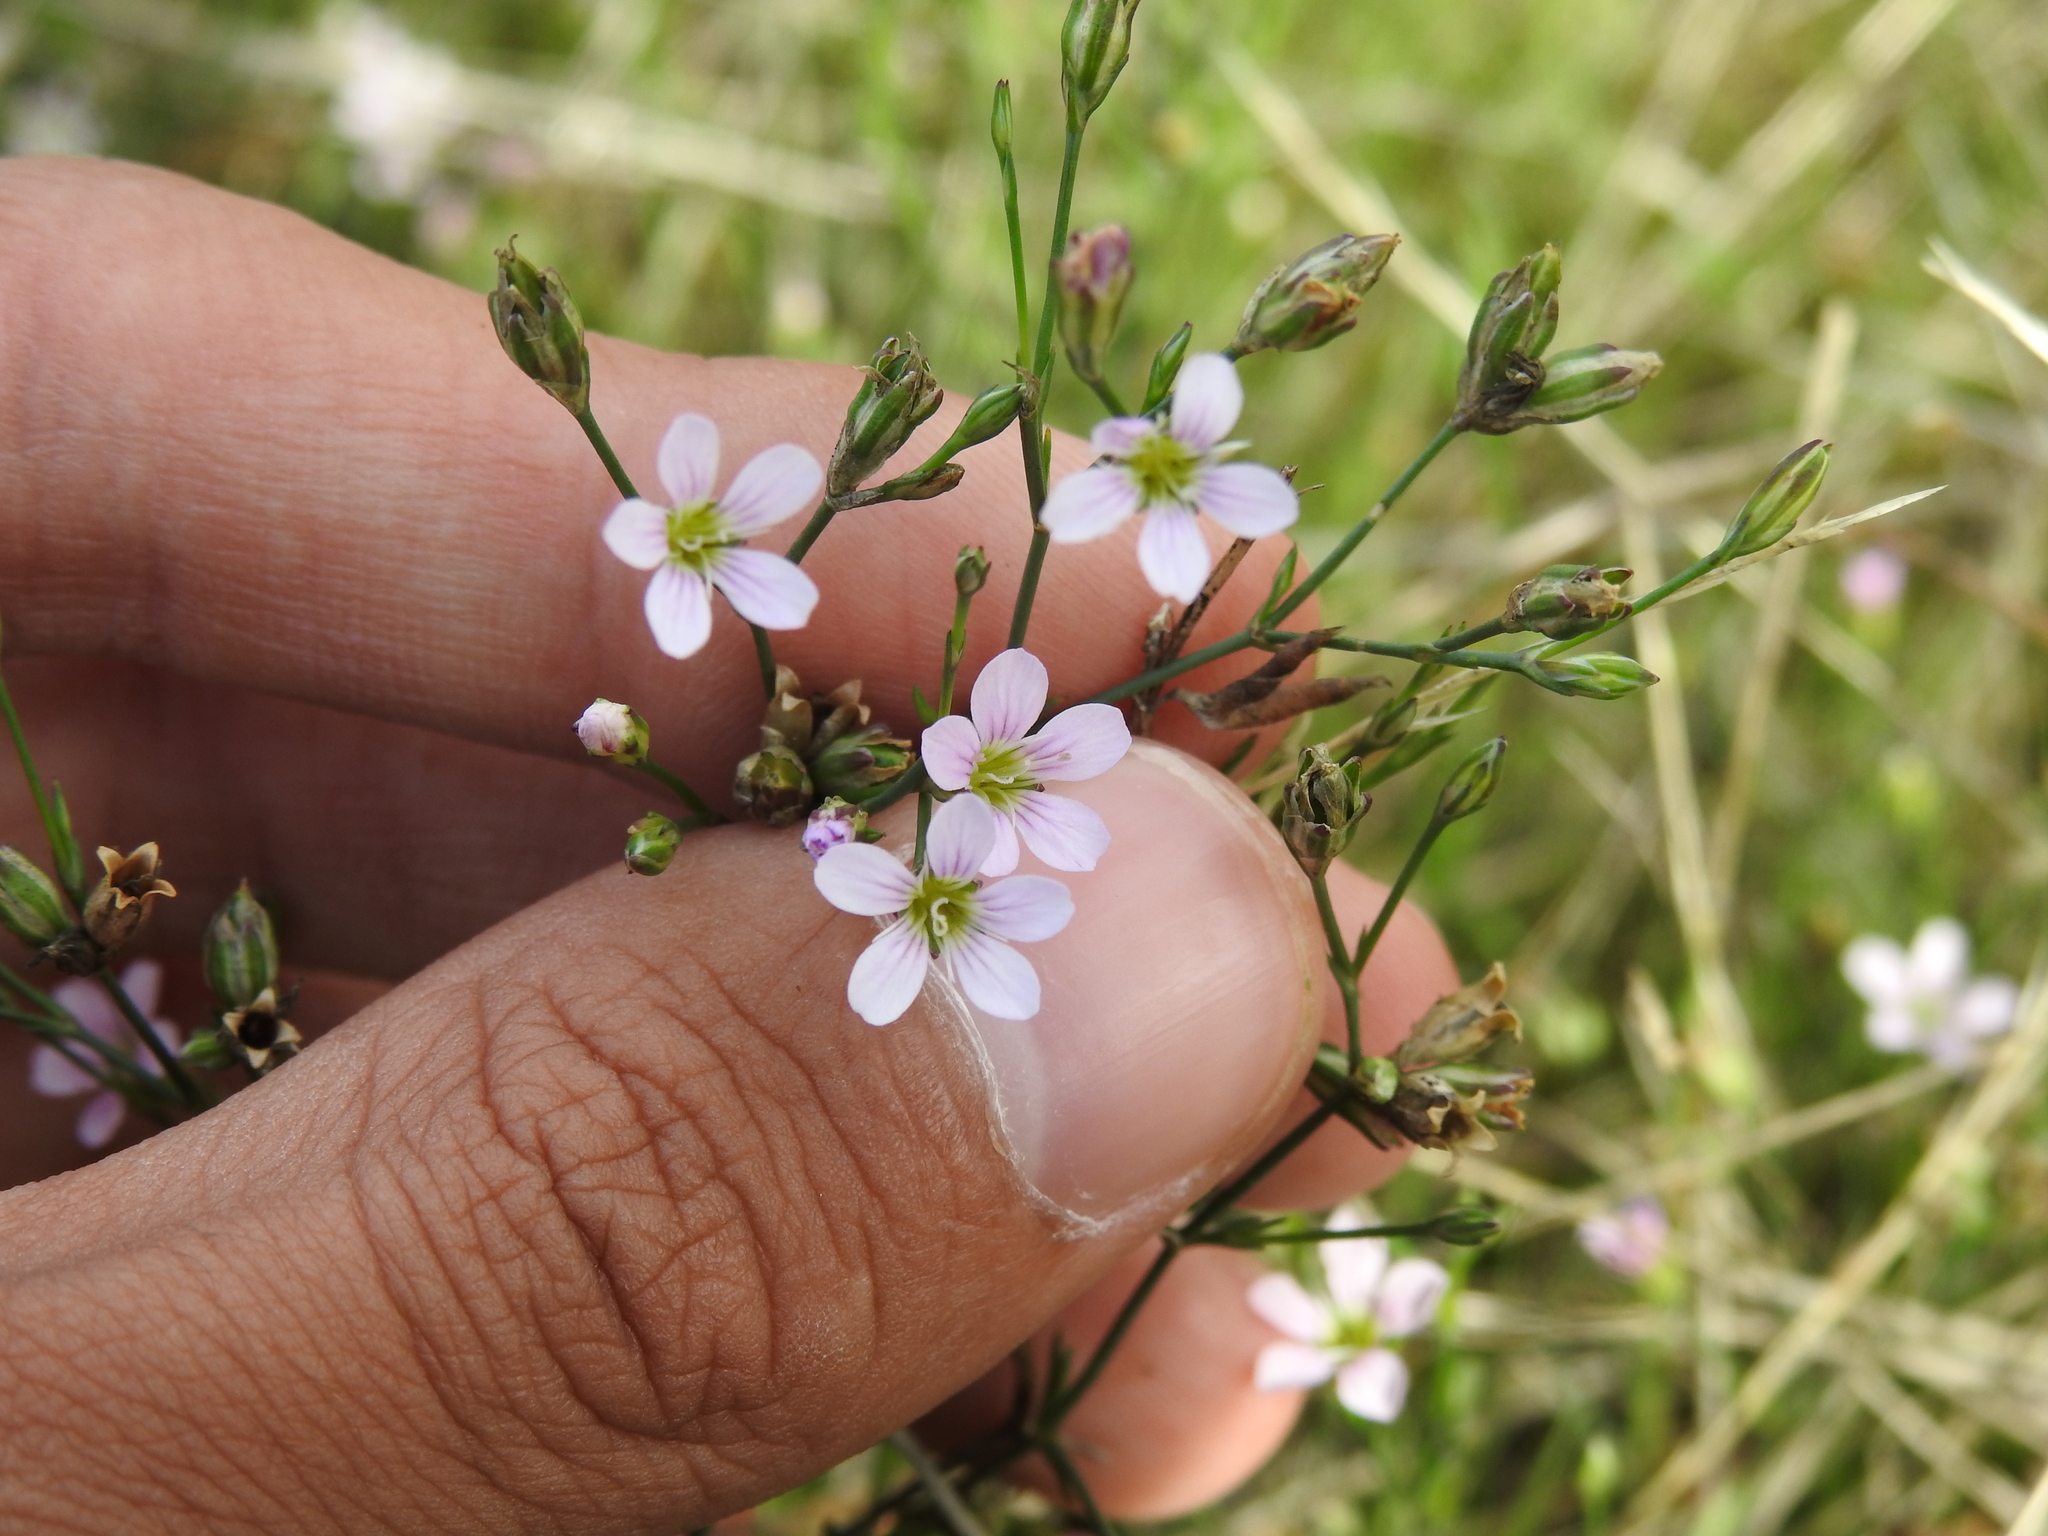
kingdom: Plantae
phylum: Tracheophyta
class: Magnoliopsida
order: Caryophyllales
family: Caryophyllaceae
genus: Petrorhagia
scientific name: Petrorhagia saxifraga
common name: Tunicflower
